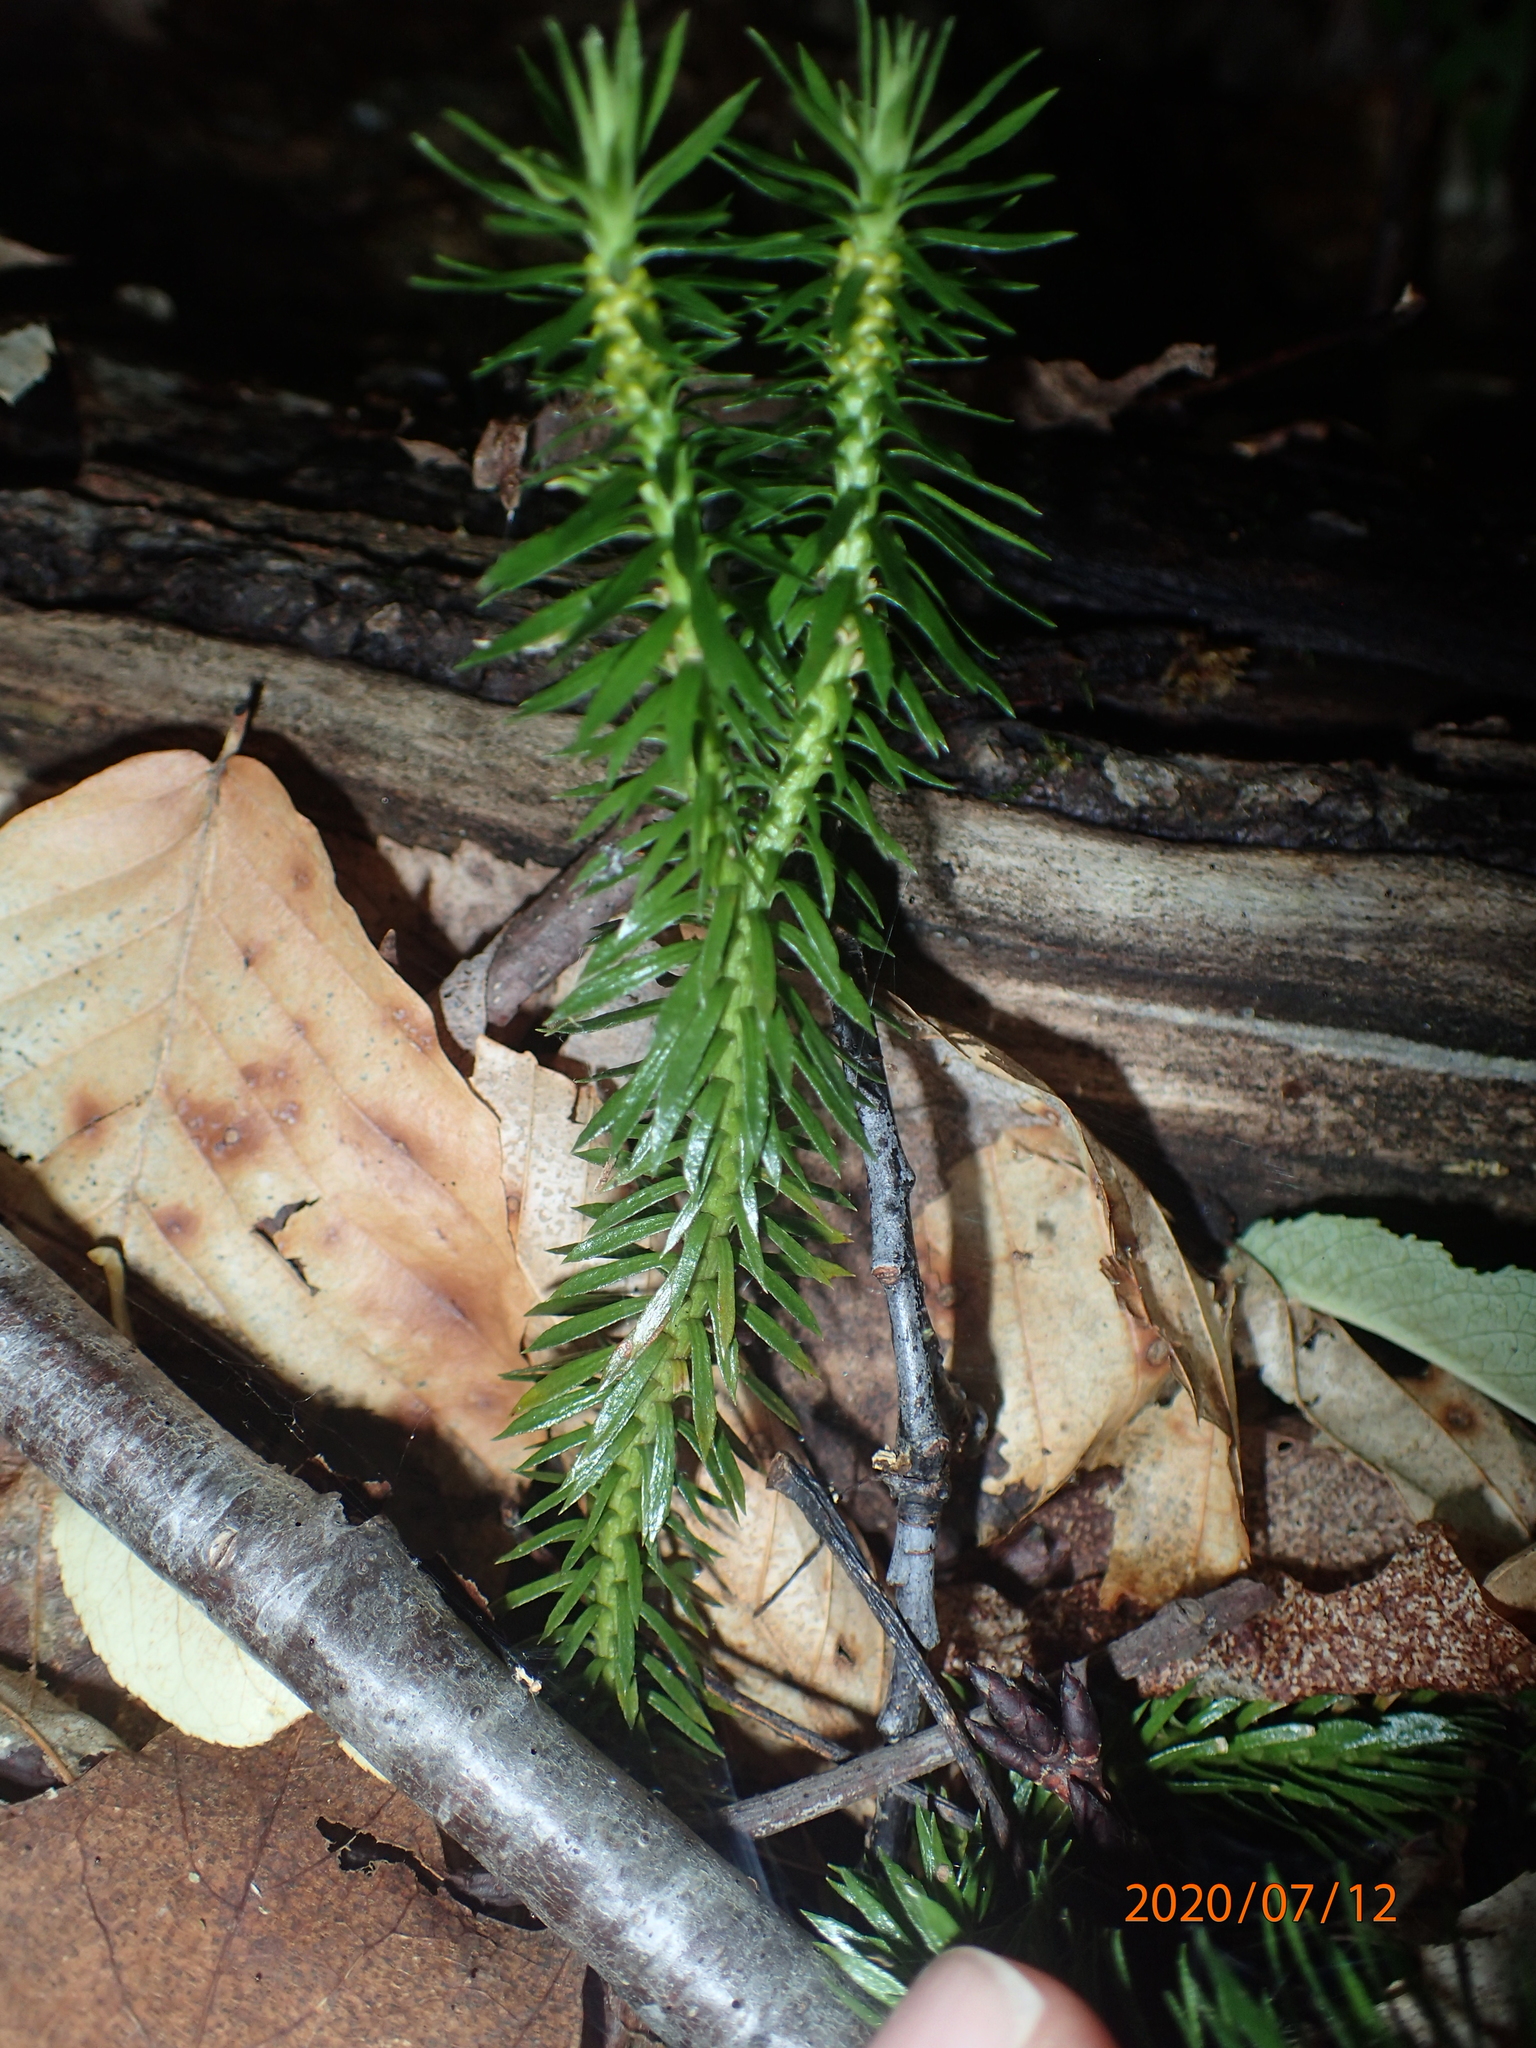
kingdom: Plantae
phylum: Tracheophyta
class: Lycopodiopsida
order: Lycopodiales
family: Lycopodiaceae
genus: Huperzia
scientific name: Huperzia lucidula
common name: Shining clubmoss
